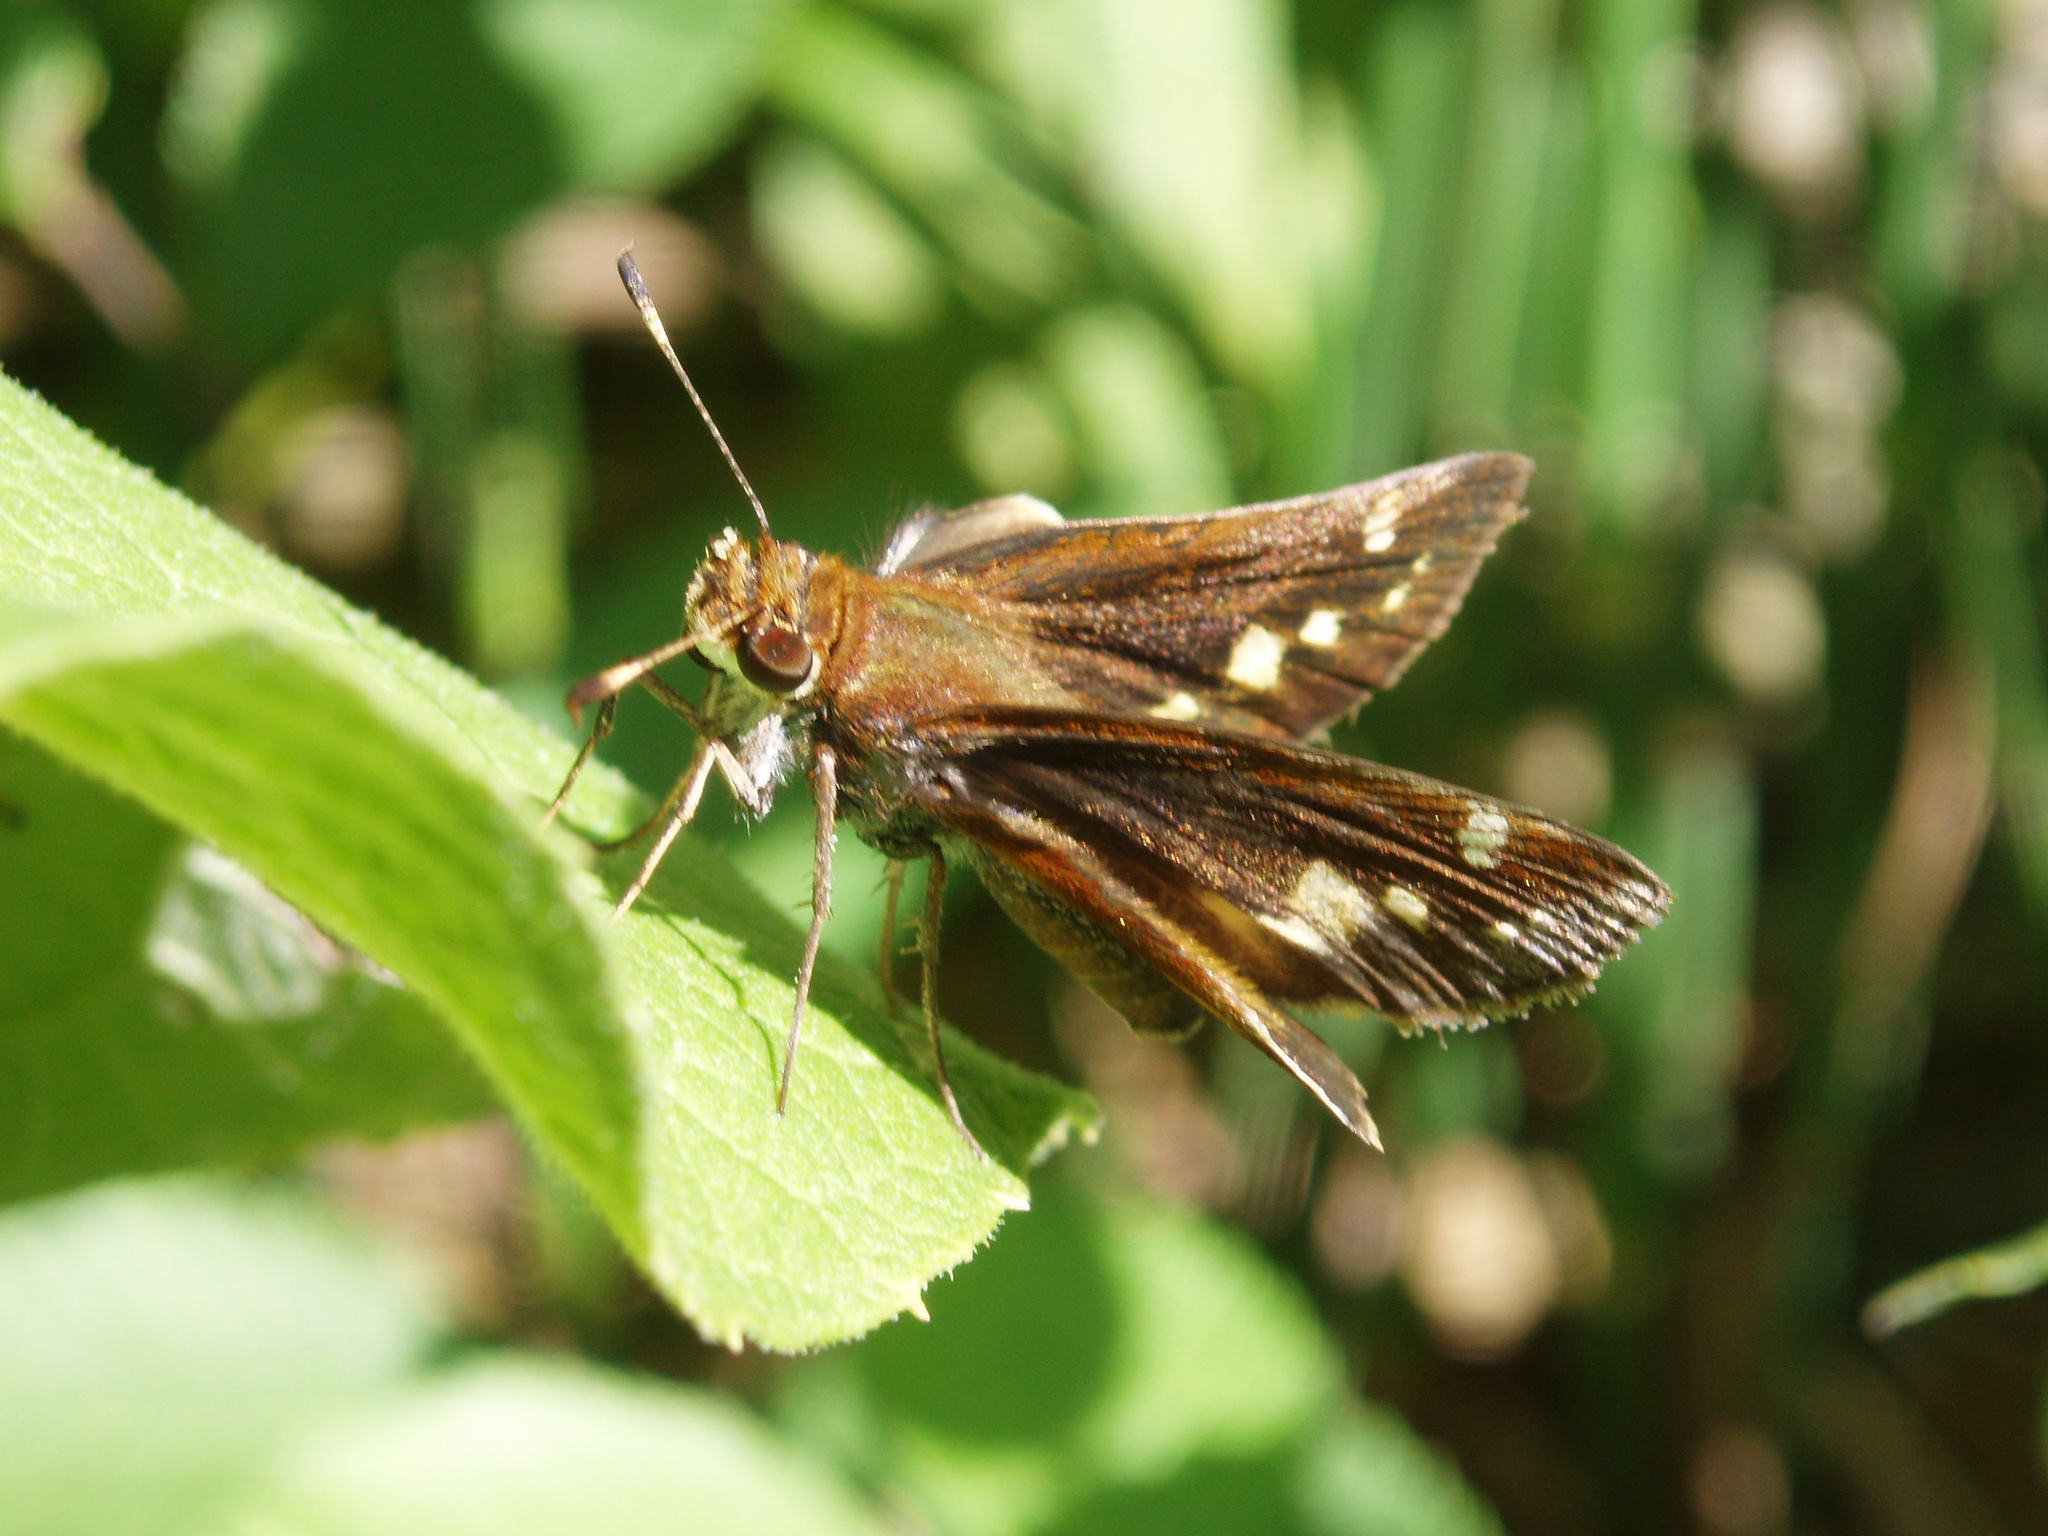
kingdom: Animalia
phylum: Arthropoda
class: Insecta
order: Lepidoptera
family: Hesperiidae
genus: Lon
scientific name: Lon zabulon
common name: Zabulon skipper
